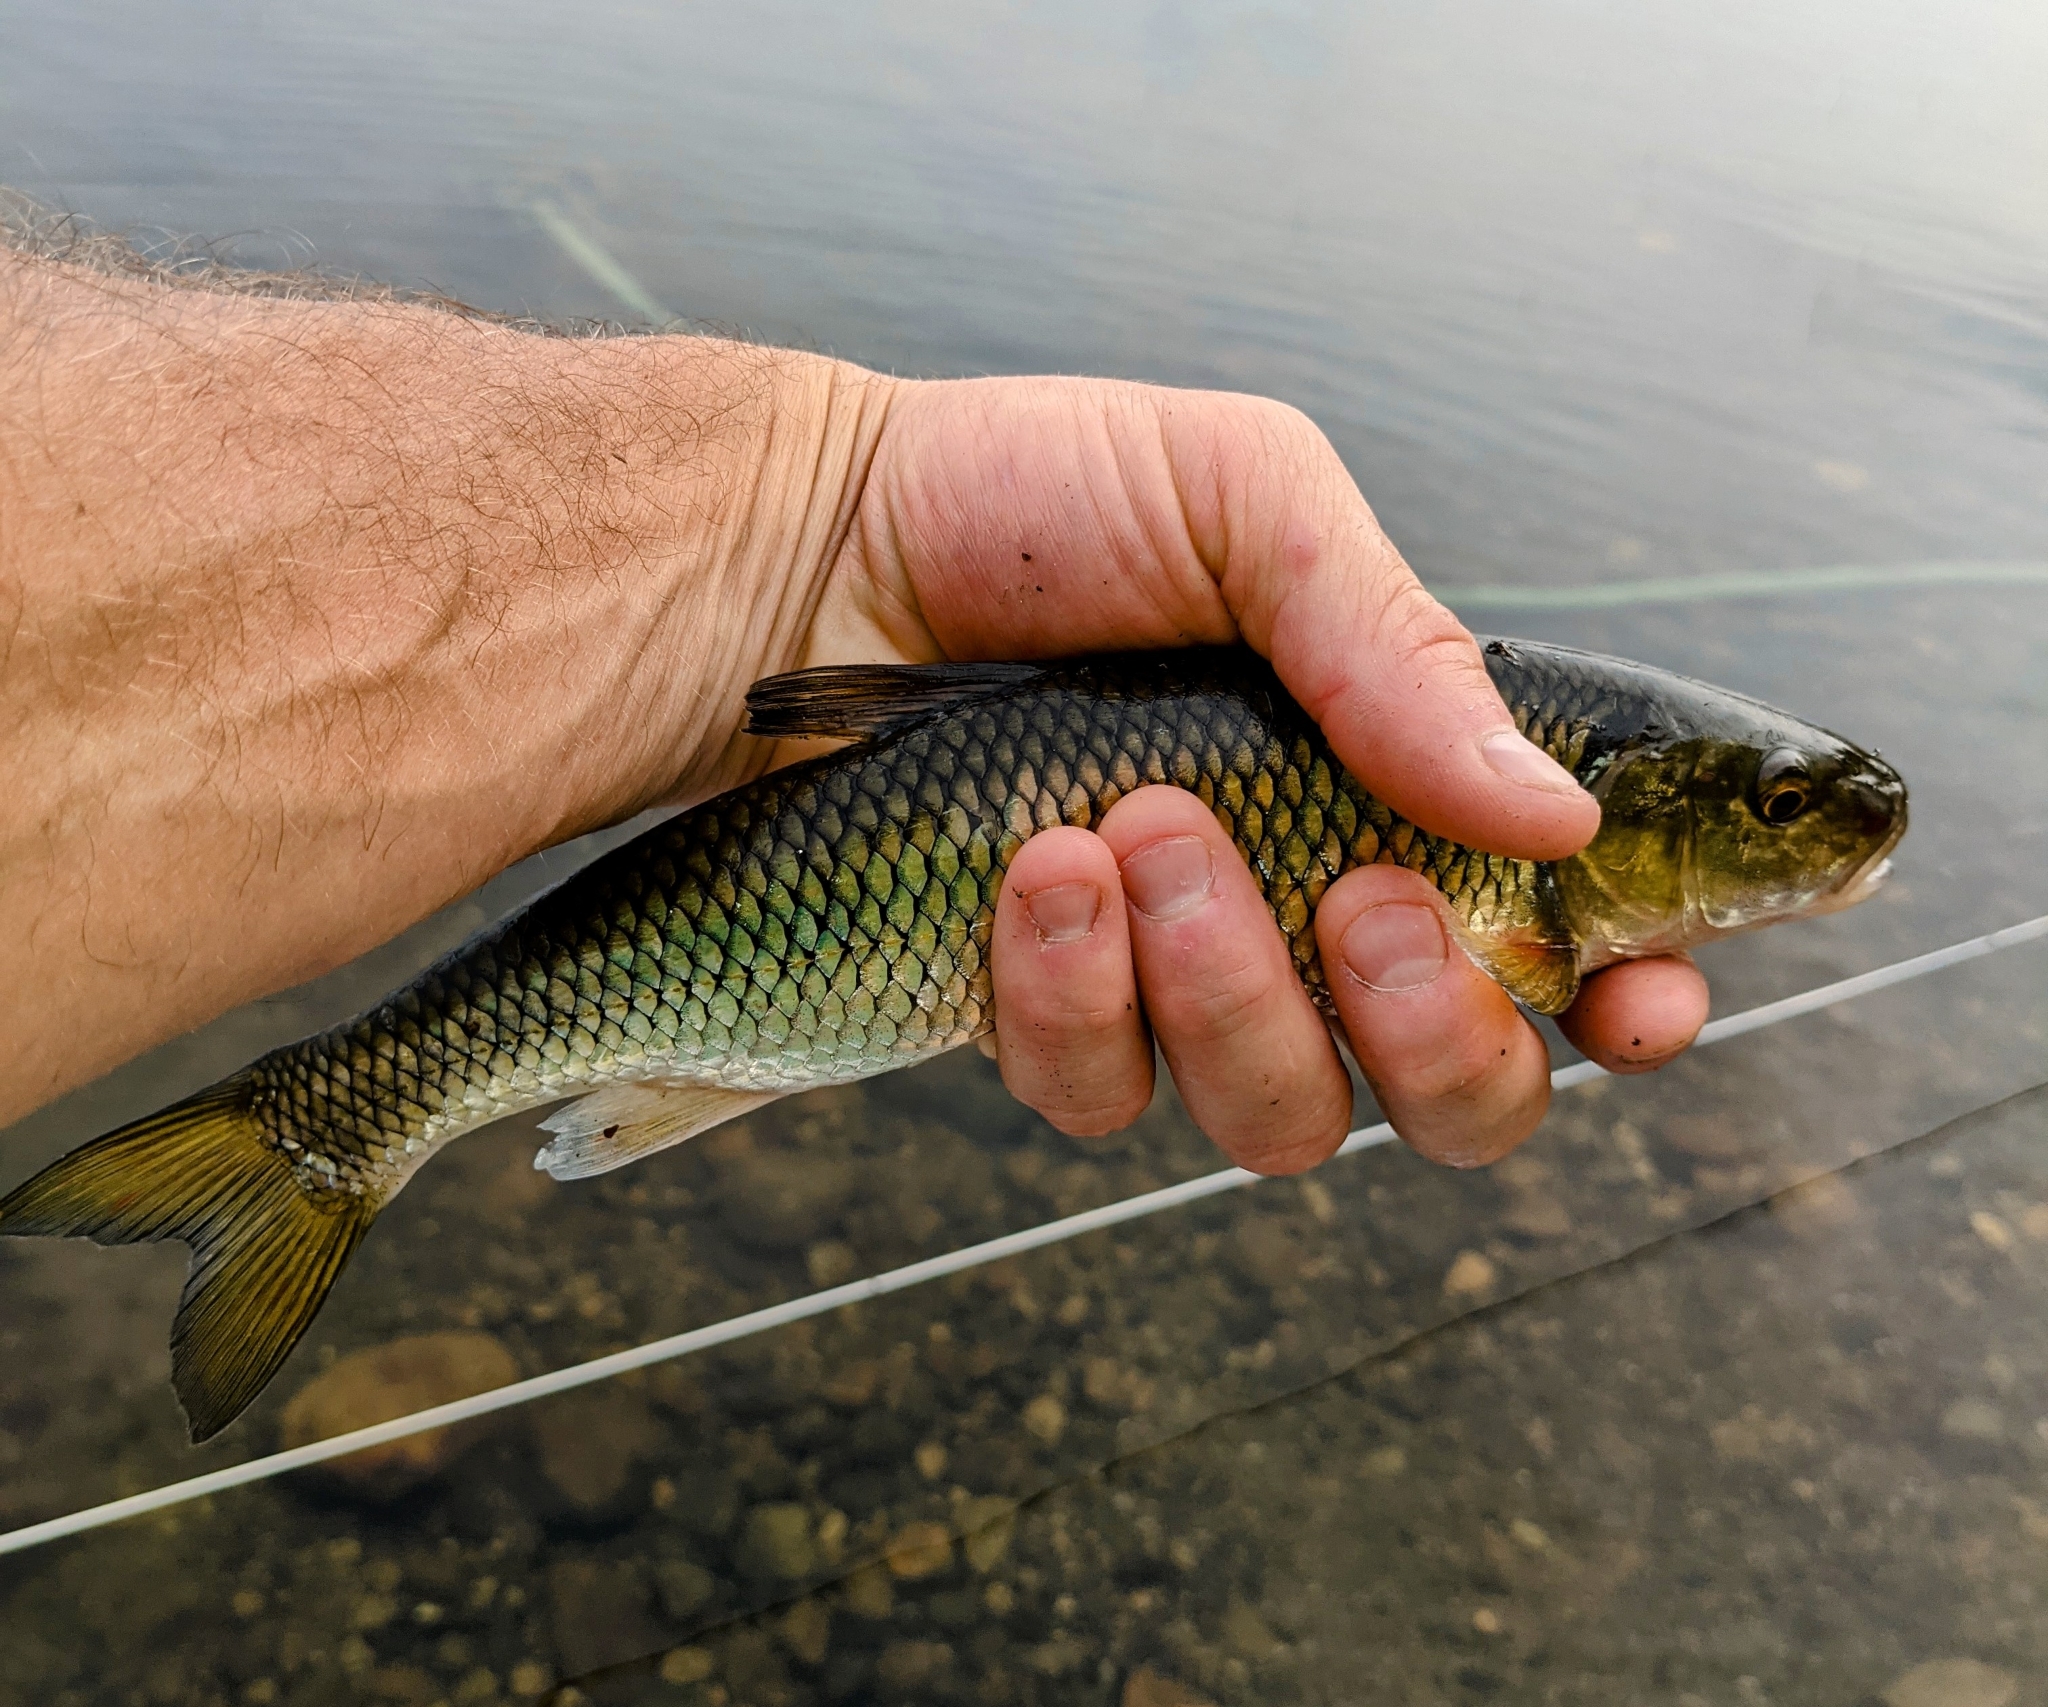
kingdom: Animalia
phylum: Chordata
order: Cypriniformes
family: Cyprinidae
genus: Semotilus
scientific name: Semotilus corporalis
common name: Fallfish
